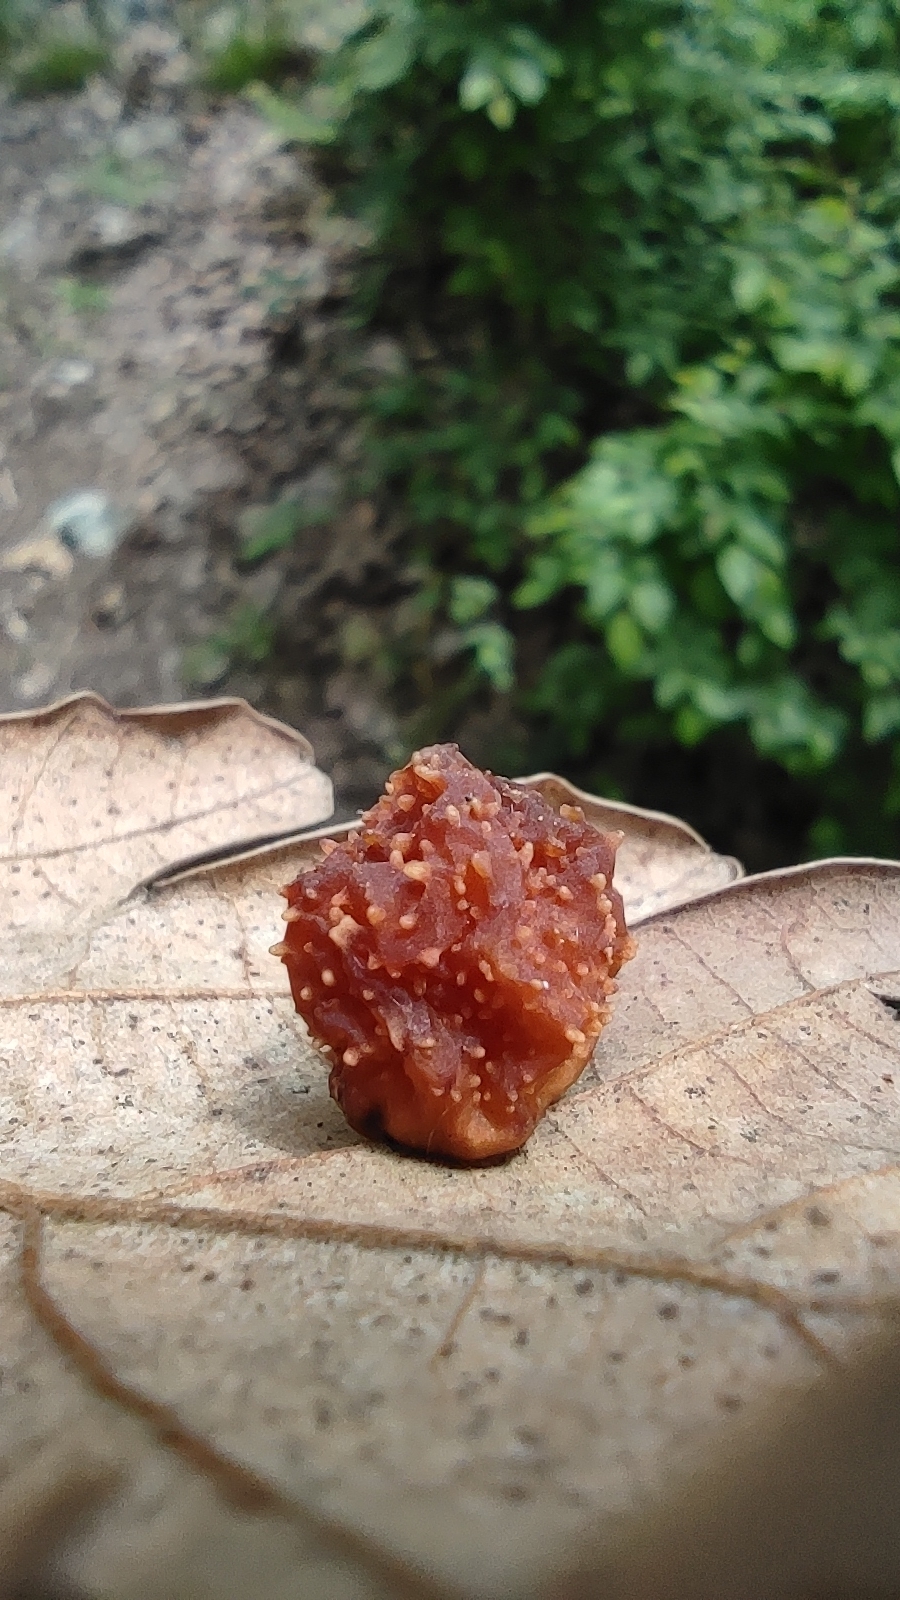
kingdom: Animalia
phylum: Arthropoda
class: Insecta
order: Hymenoptera
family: Cynipidae
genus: Cynips
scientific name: Cynips quercusfolii
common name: Cherry gall
